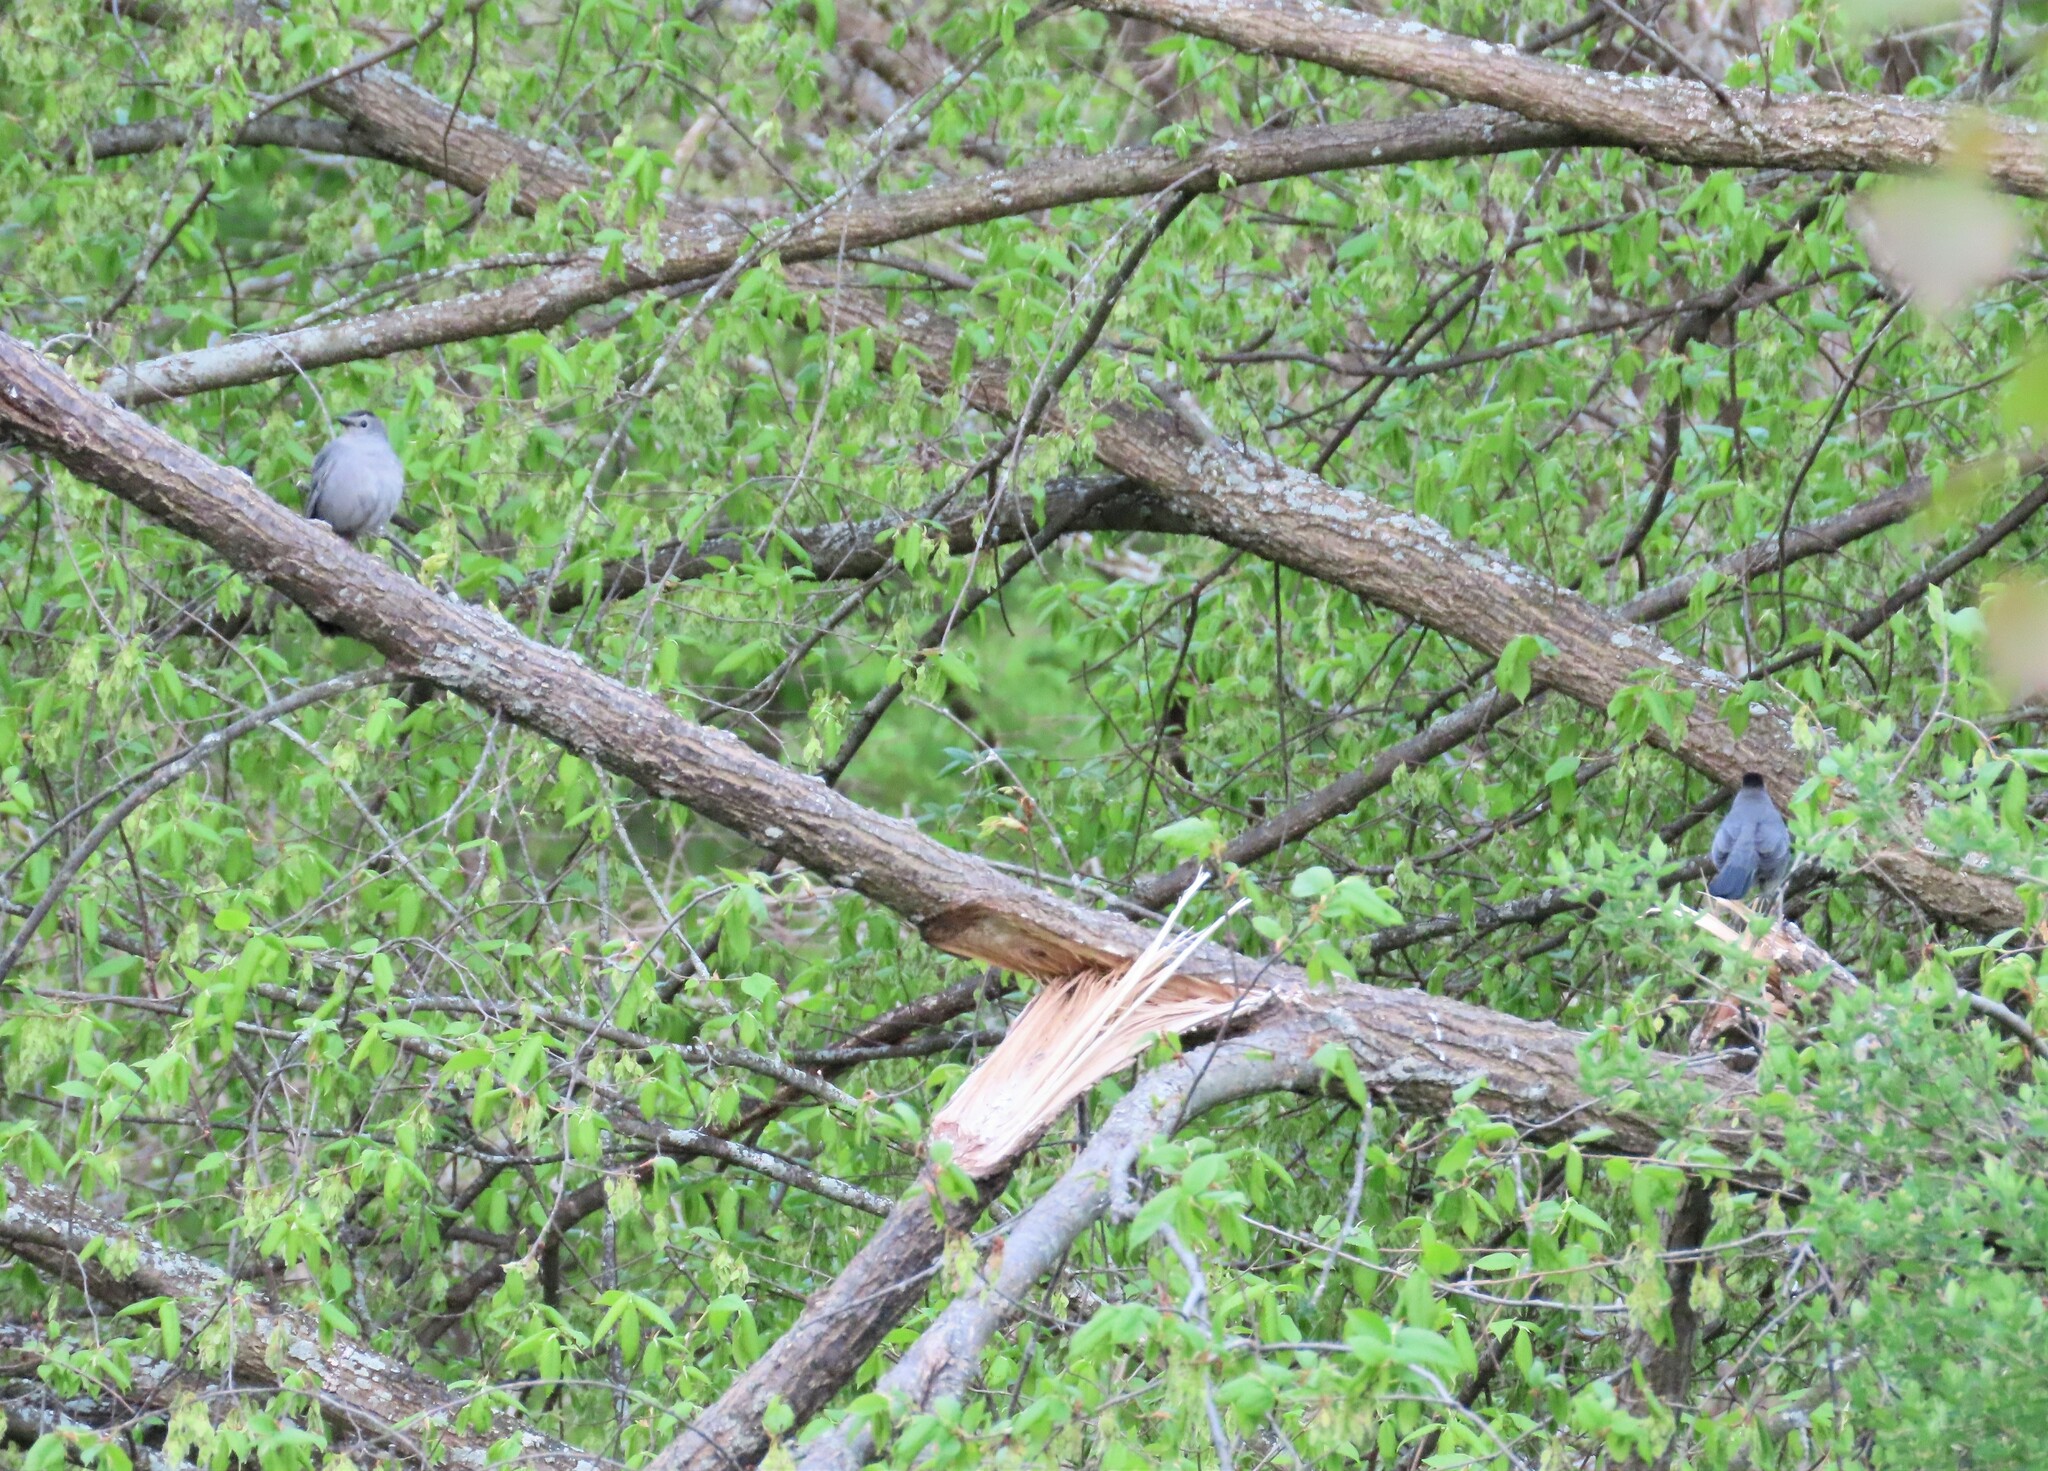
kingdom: Animalia
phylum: Chordata
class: Aves
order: Passeriformes
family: Mimidae
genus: Dumetella
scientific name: Dumetella carolinensis
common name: Gray catbird
